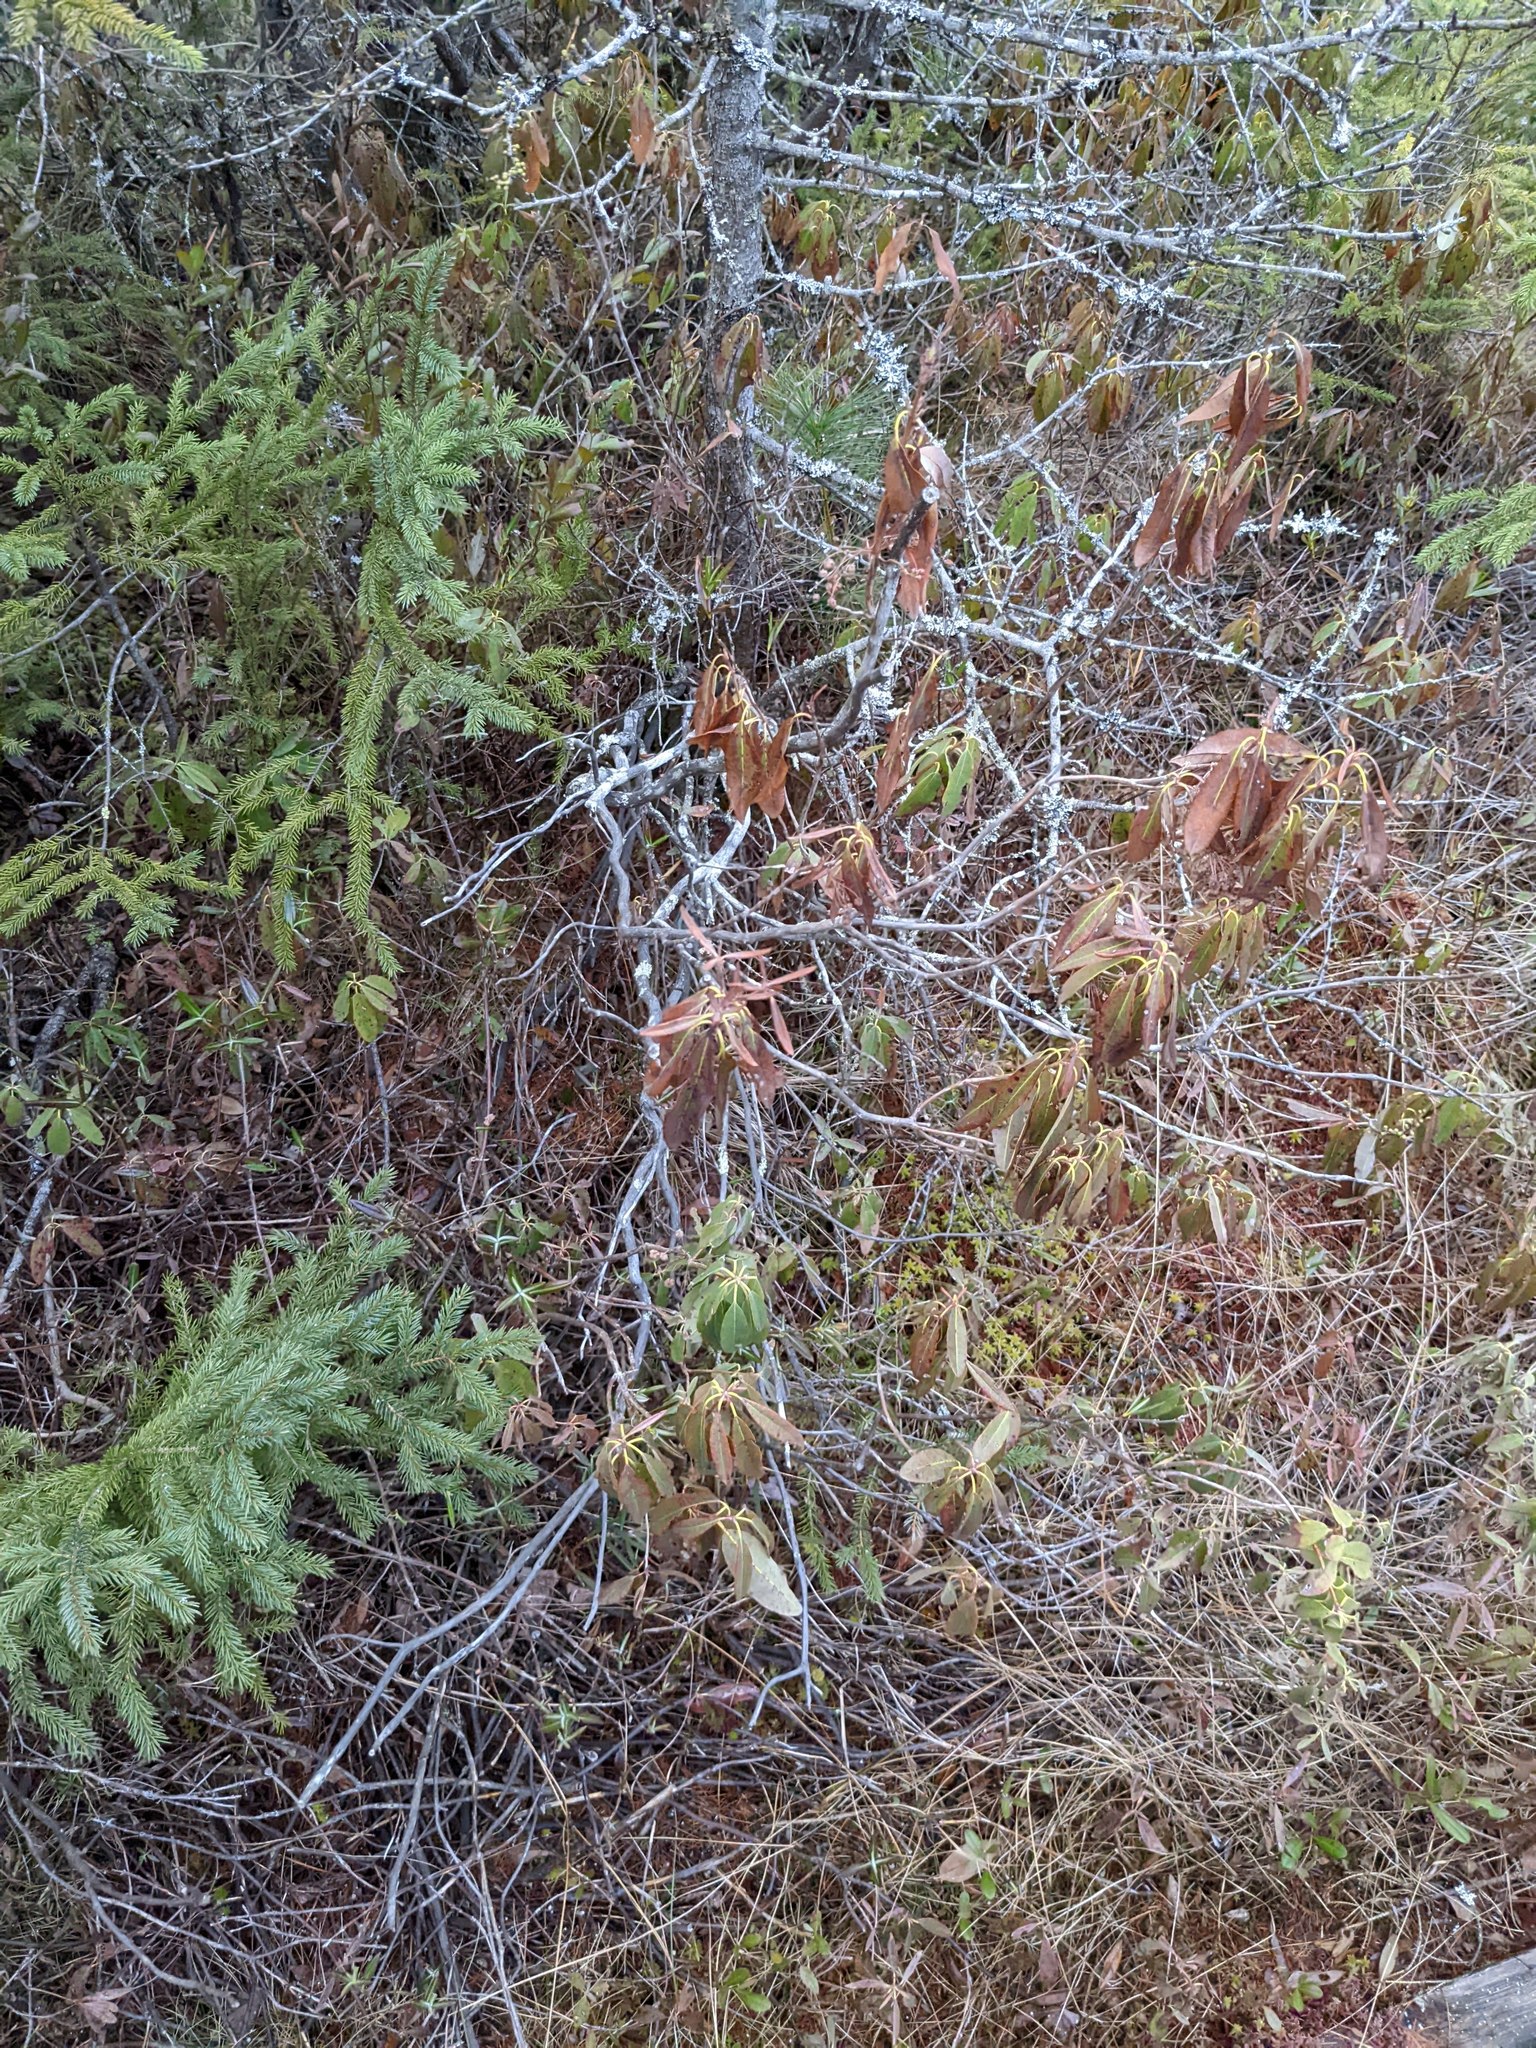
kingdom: Plantae
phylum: Tracheophyta
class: Magnoliopsida
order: Ericales
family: Ericaceae
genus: Kalmia
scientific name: Kalmia angustifolia
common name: Sheep-laurel
